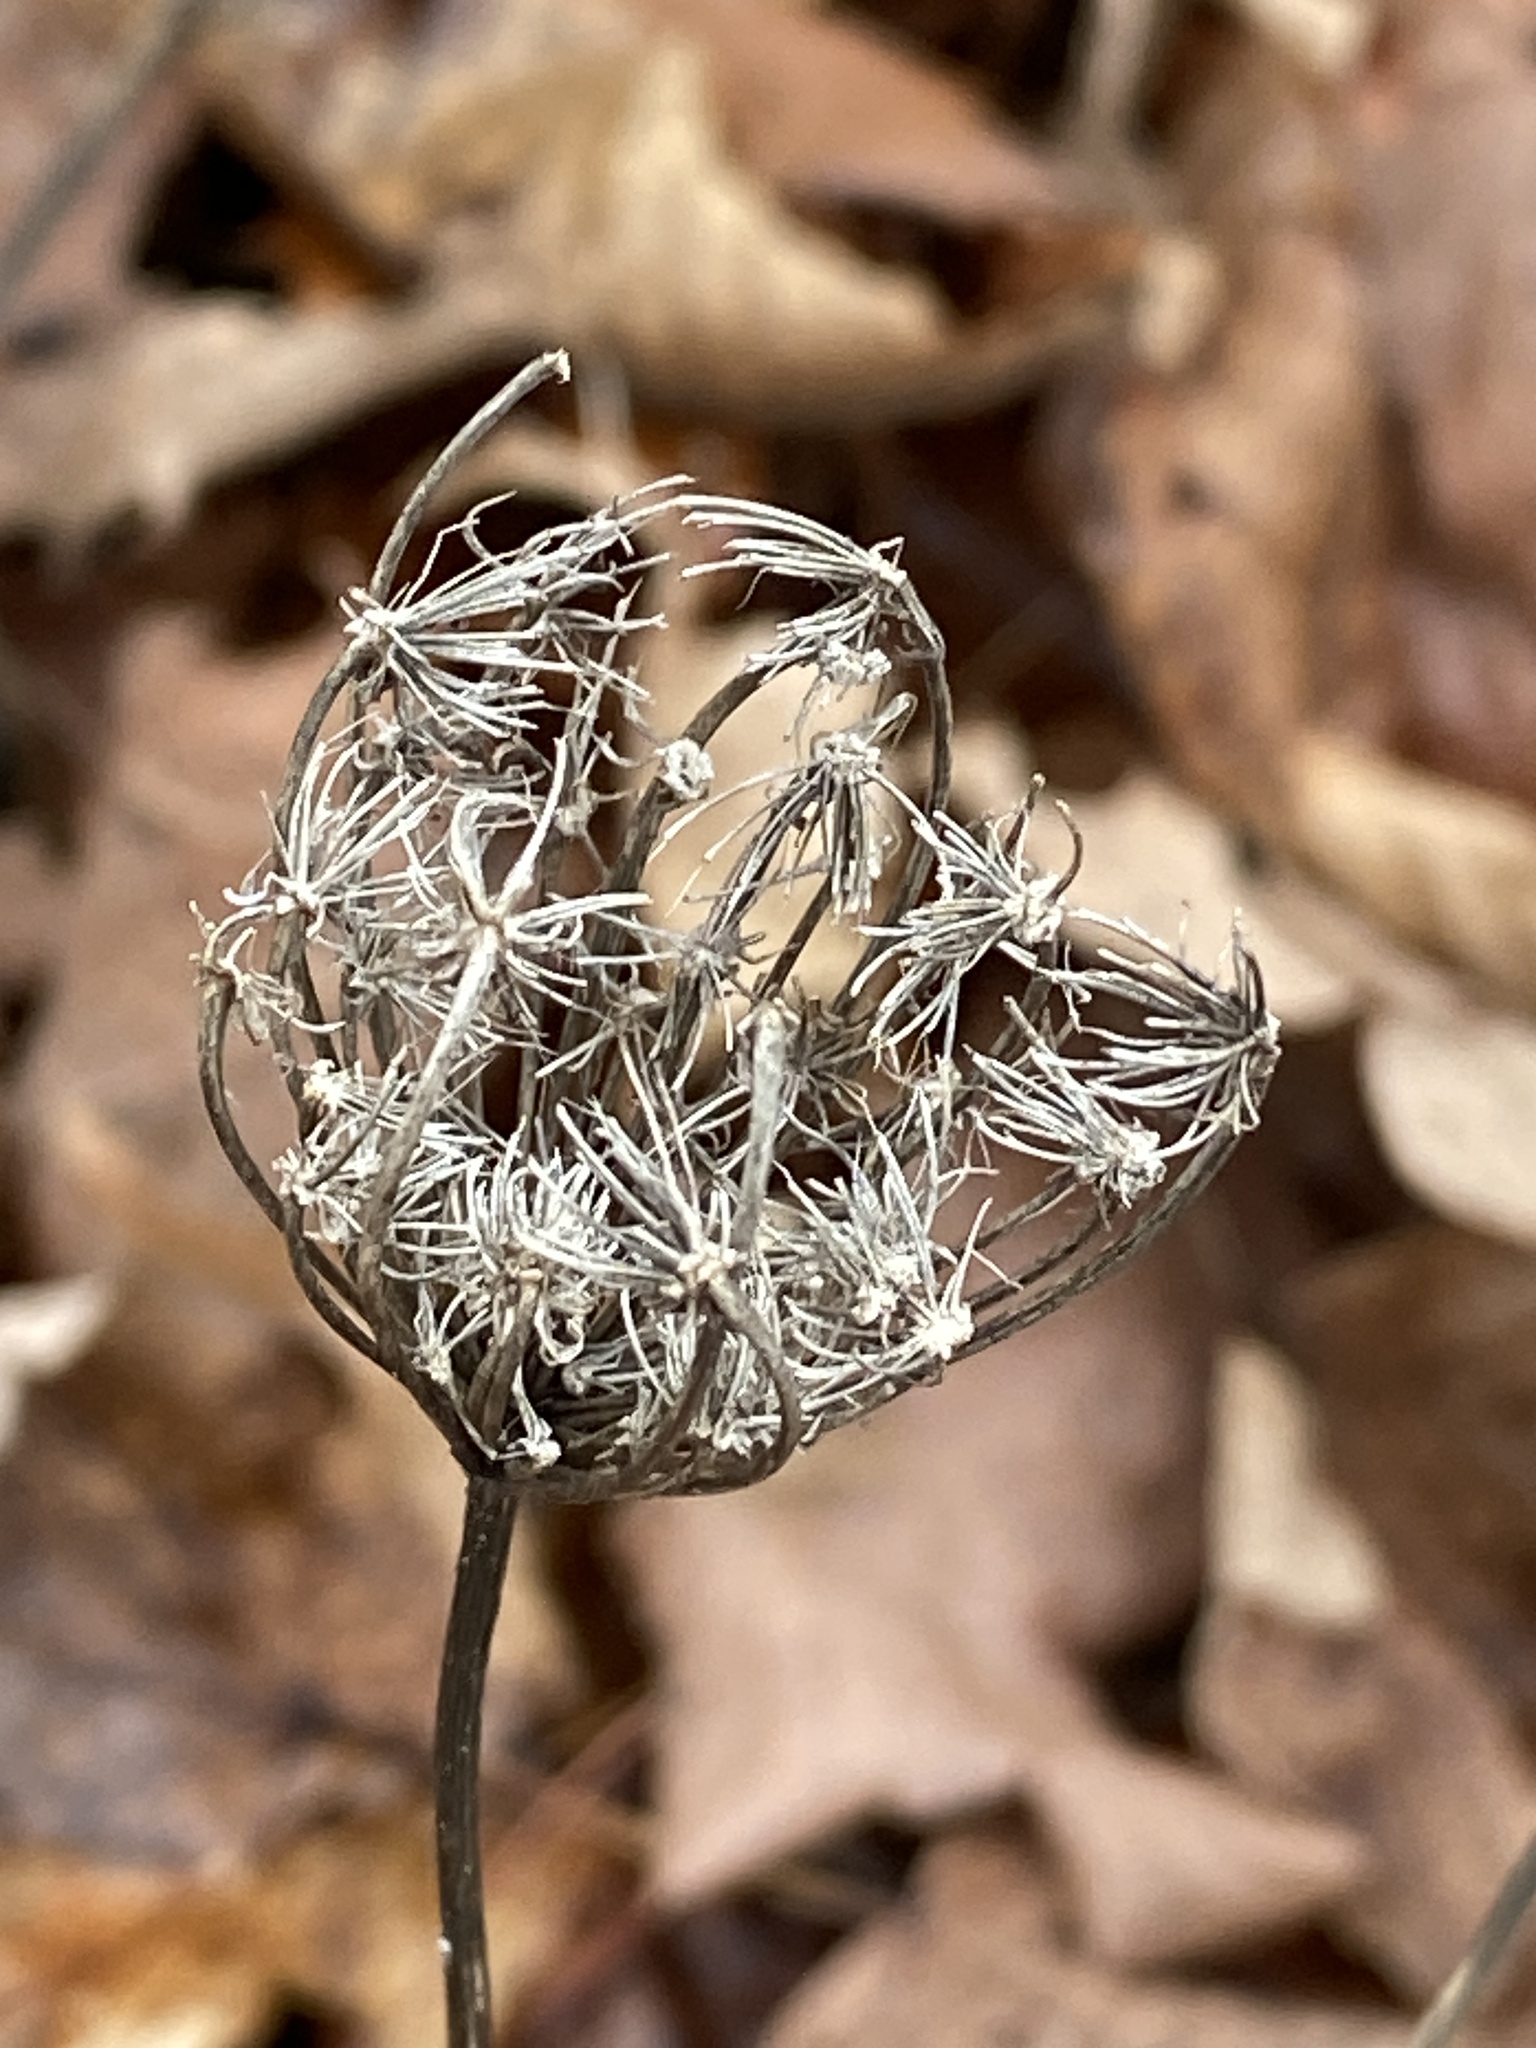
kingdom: Plantae
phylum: Tracheophyta
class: Magnoliopsida
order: Apiales
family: Apiaceae
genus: Daucus
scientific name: Daucus carota
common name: Wild carrot
